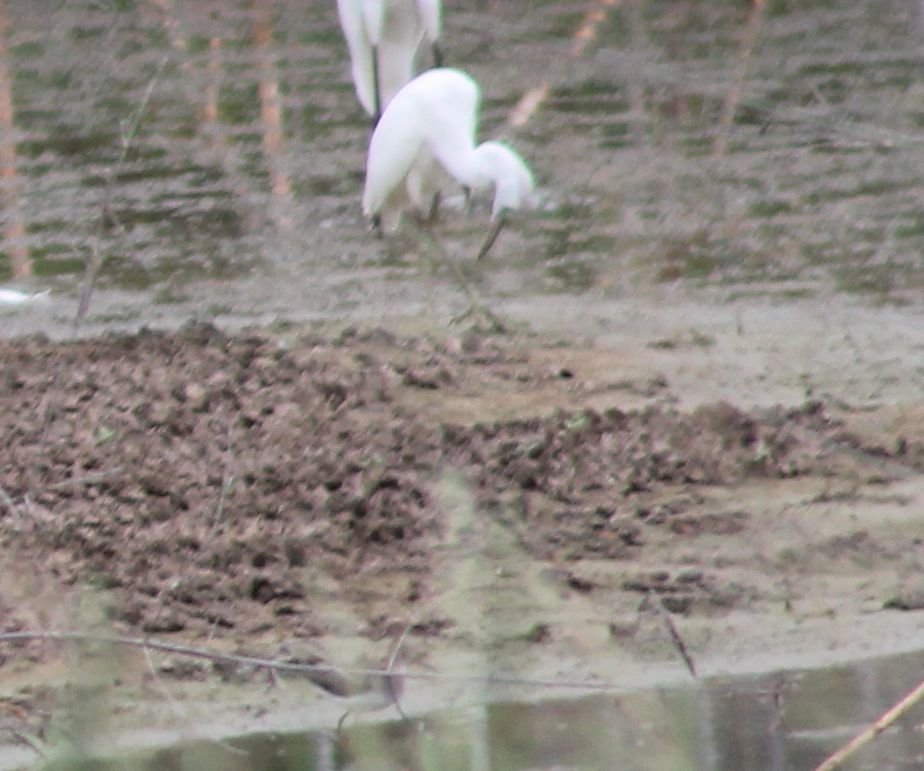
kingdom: Animalia
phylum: Chordata
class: Aves
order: Pelecaniformes
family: Ardeidae
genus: Egretta
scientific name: Egretta caerulea
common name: Little blue heron
